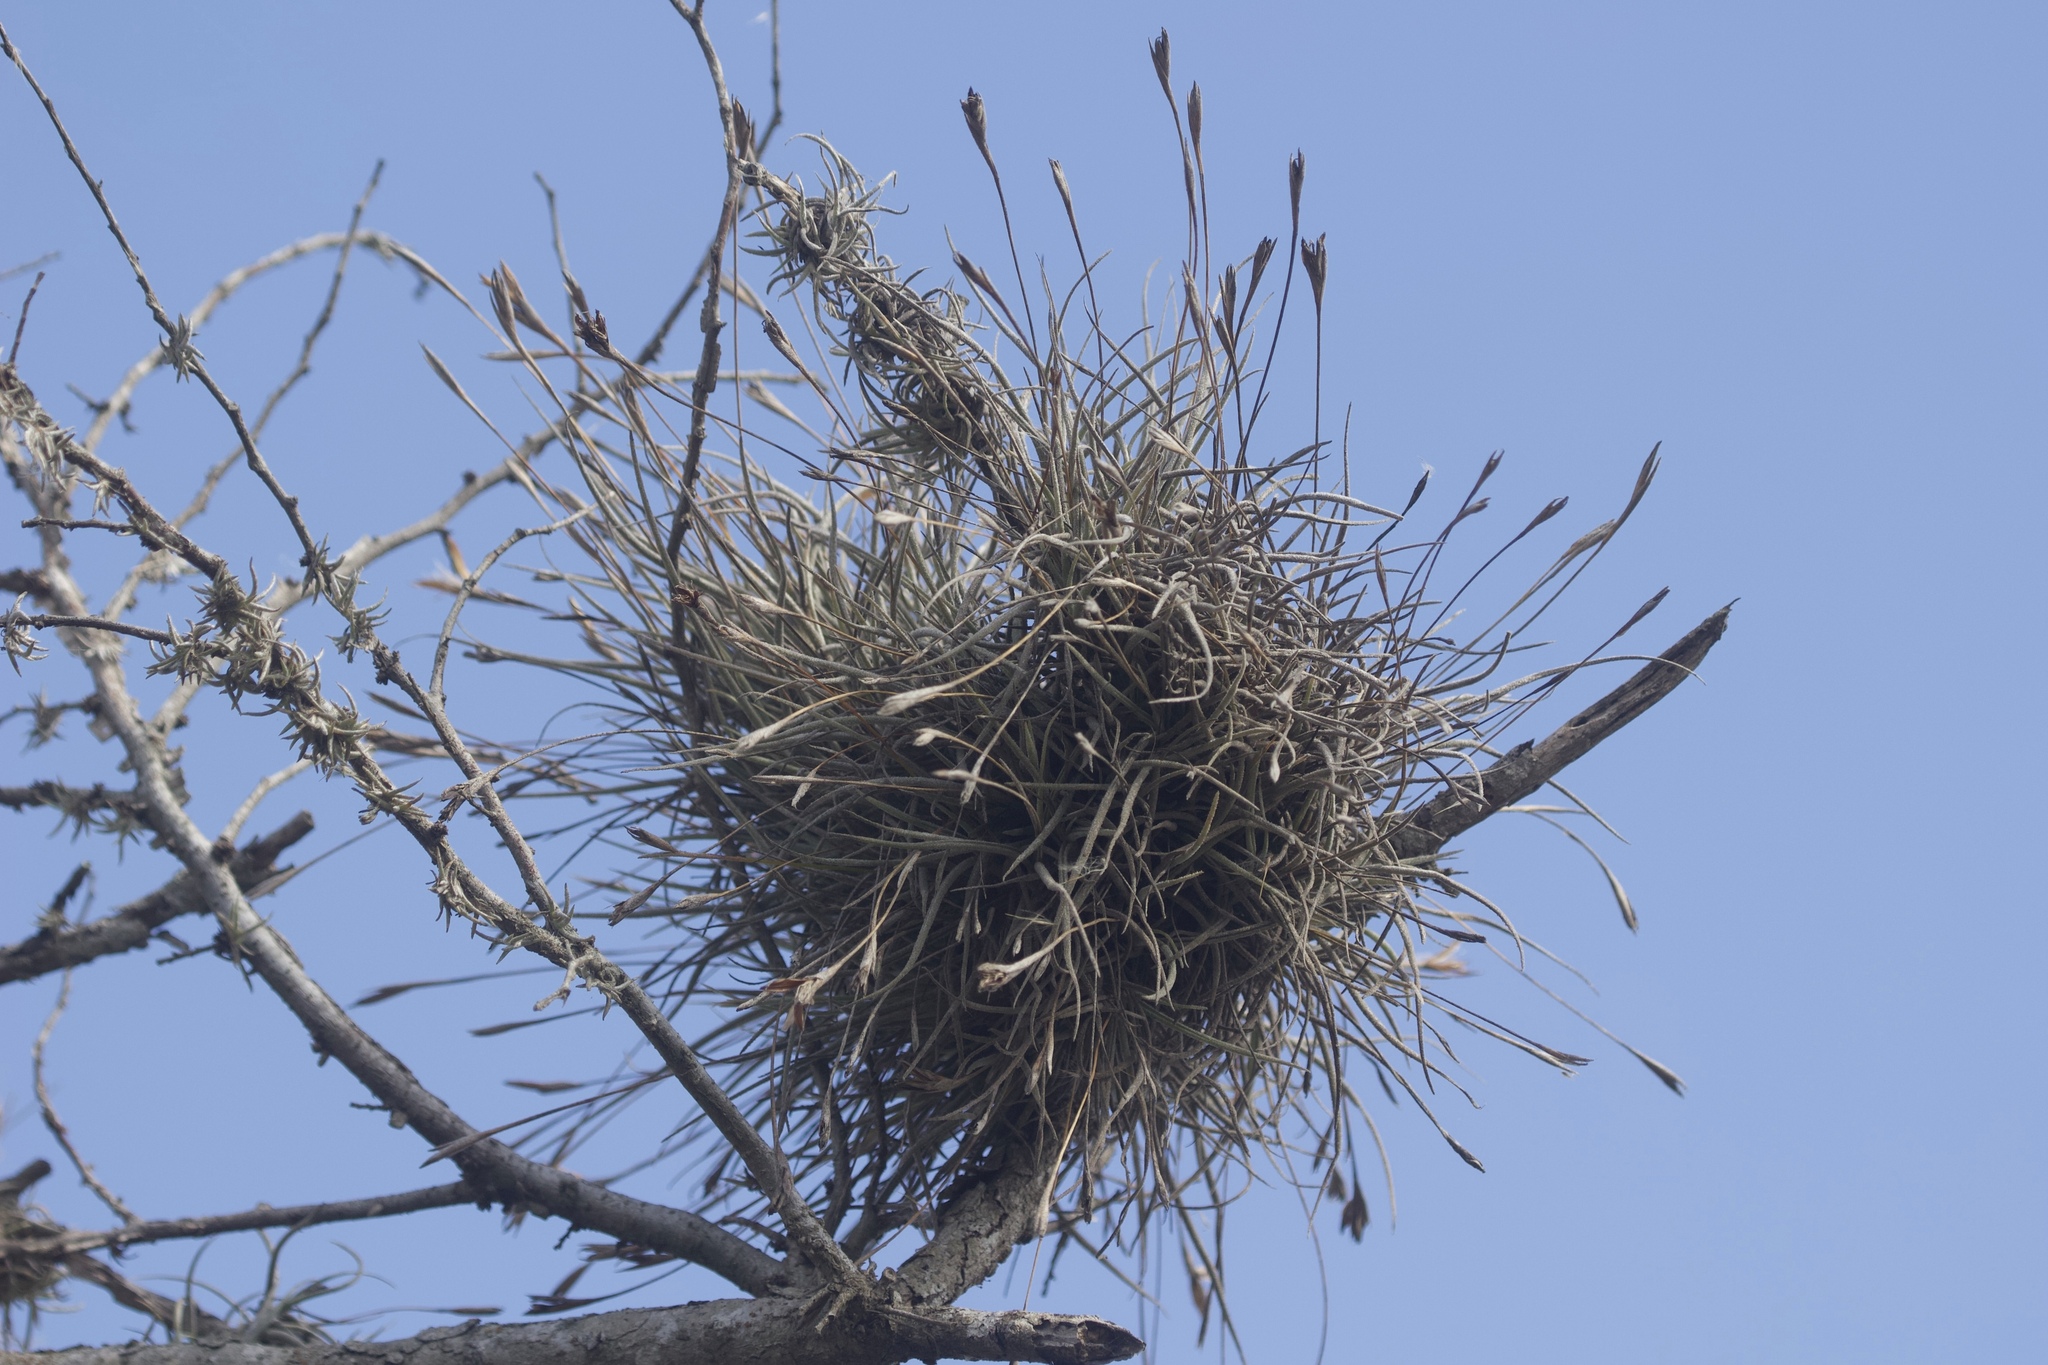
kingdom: Plantae
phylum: Tracheophyta
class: Liliopsida
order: Poales
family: Bromeliaceae
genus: Tillandsia
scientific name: Tillandsia recurvata
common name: Small ballmoss
